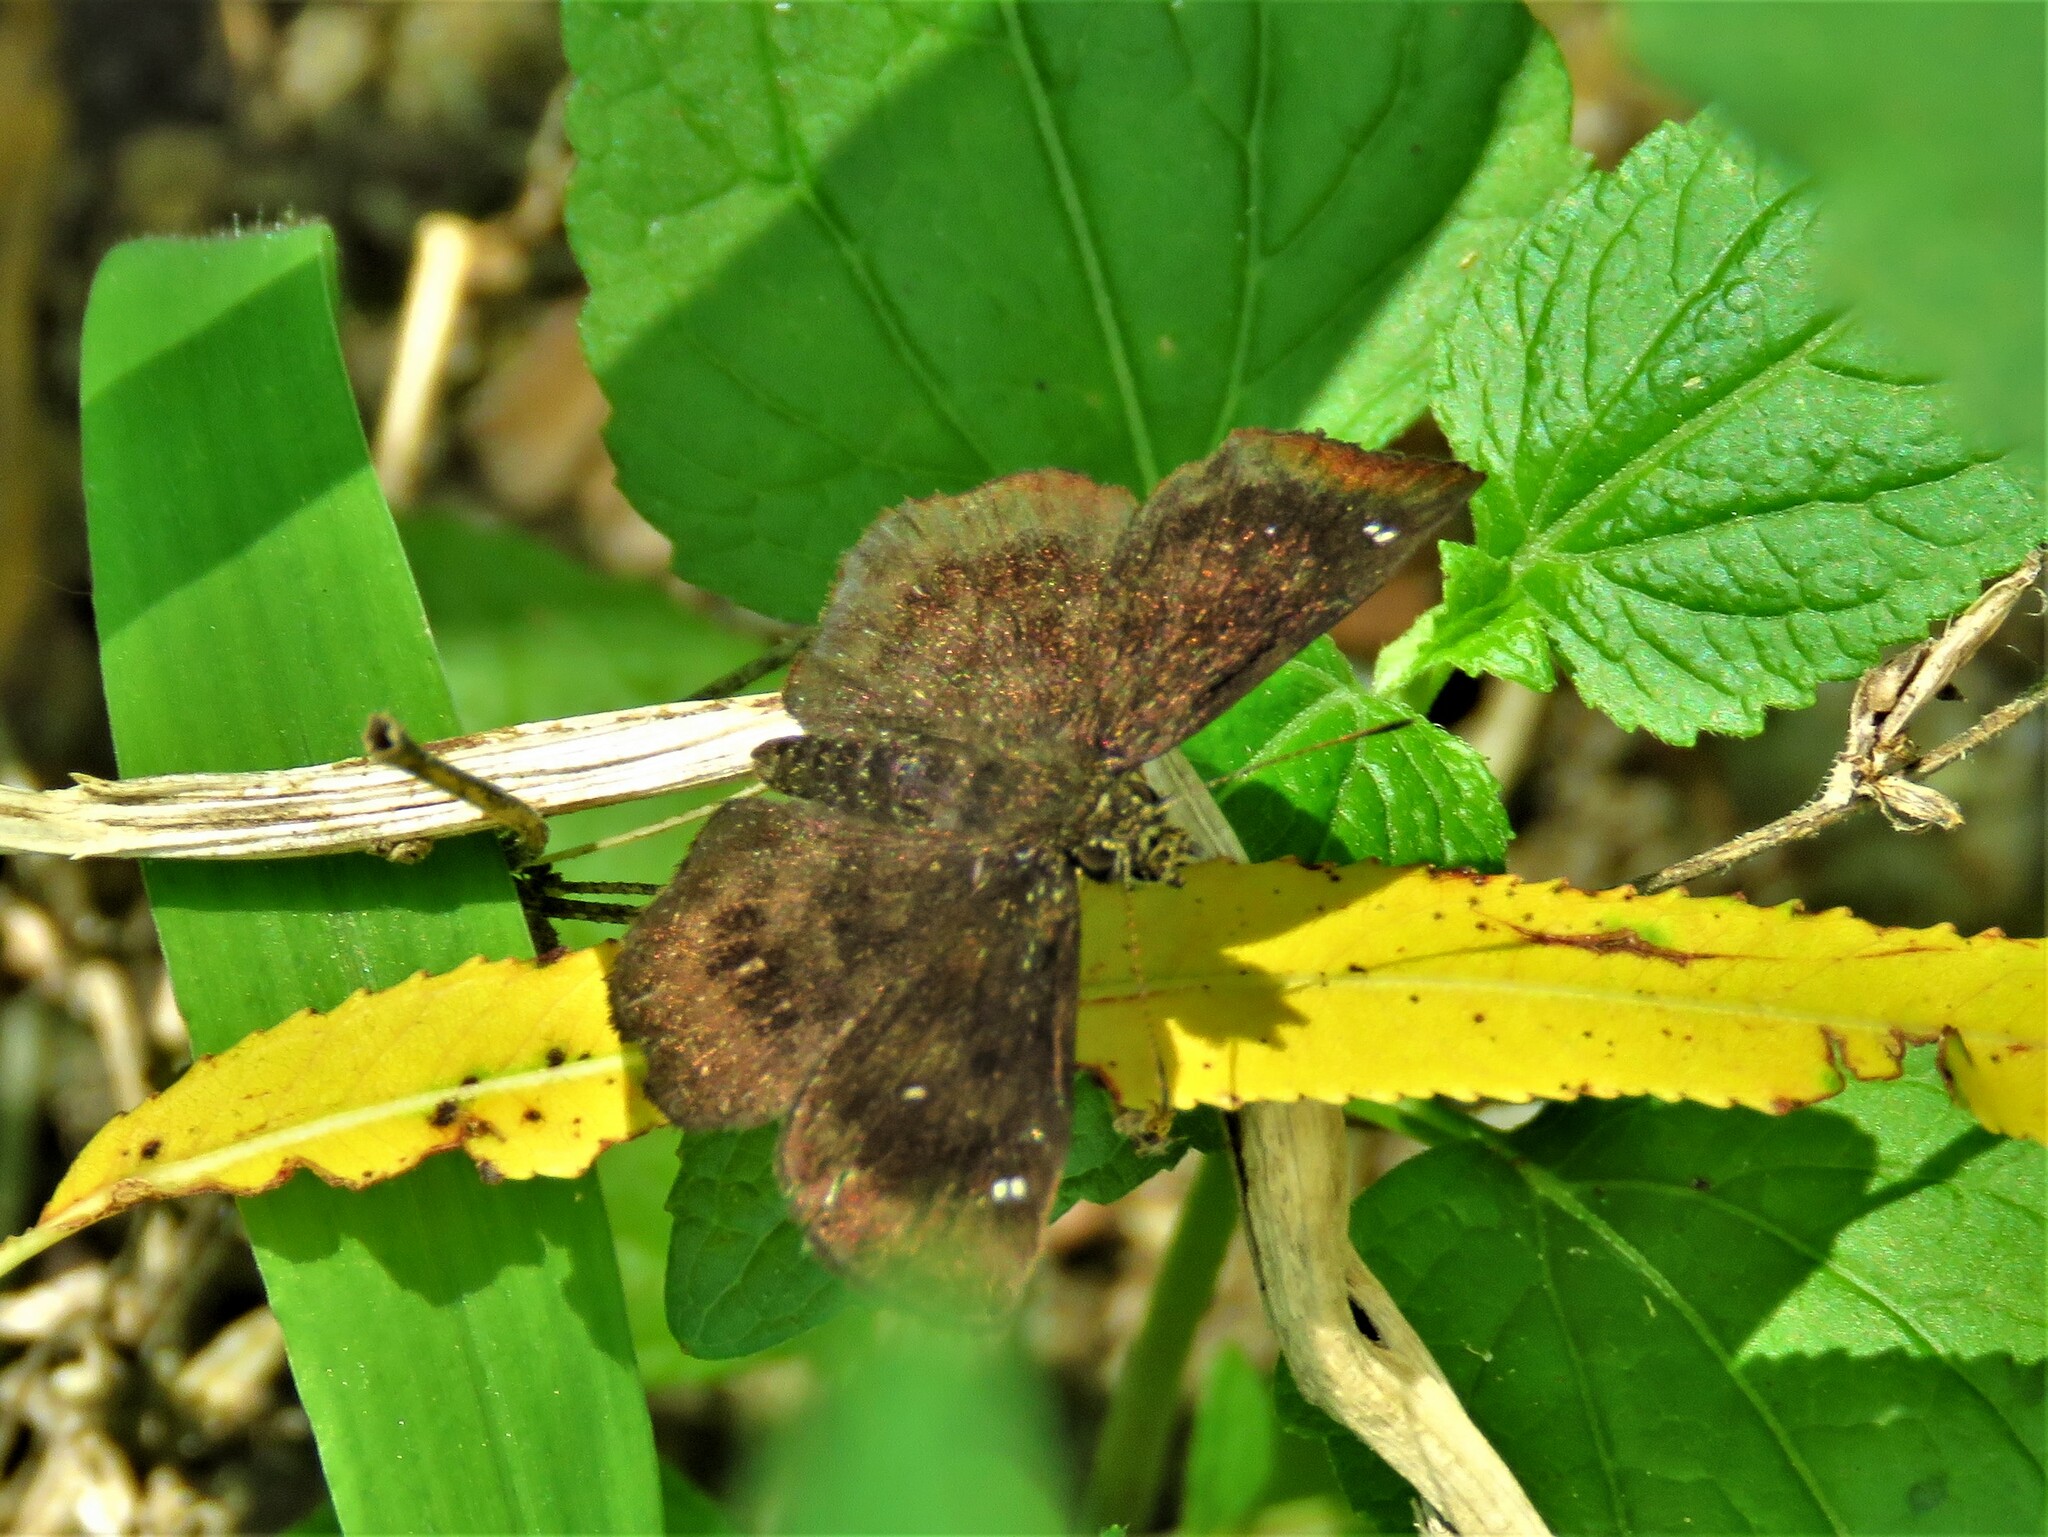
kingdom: Animalia
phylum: Arthropoda
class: Insecta
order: Lepidoptera
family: Hesperiidae
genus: Staphylus
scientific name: Staphylus mazans
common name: Mazans scallopwing
